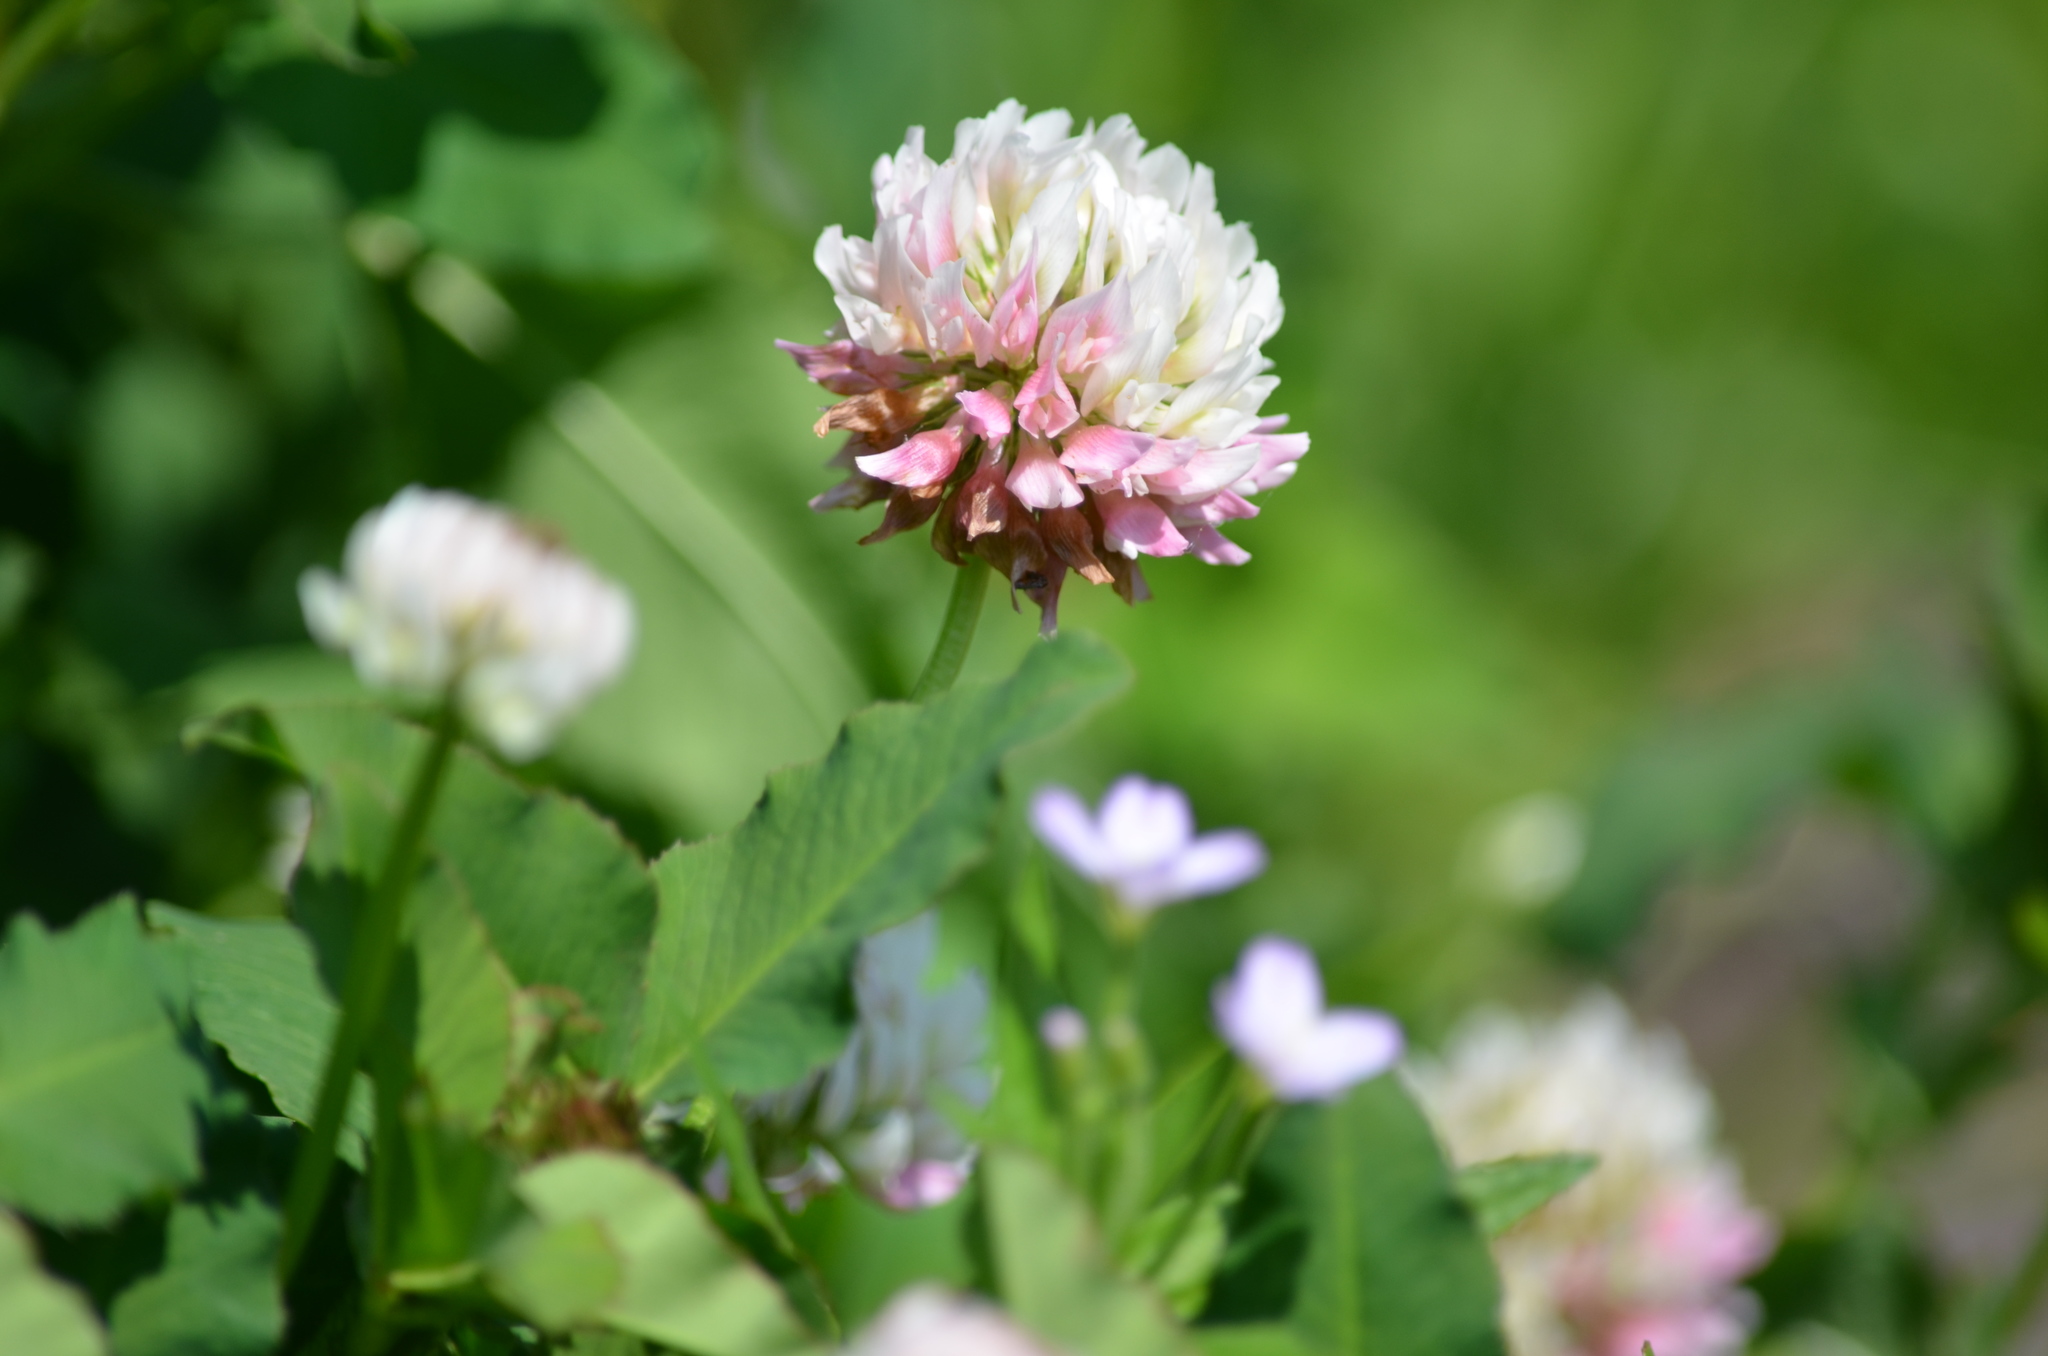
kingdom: Plantae
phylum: Tracheophyta
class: Magnoliopsida
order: Fabales
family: Fabaceae
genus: Trifolium
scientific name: Trifolium hybridum
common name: Alsike clover
